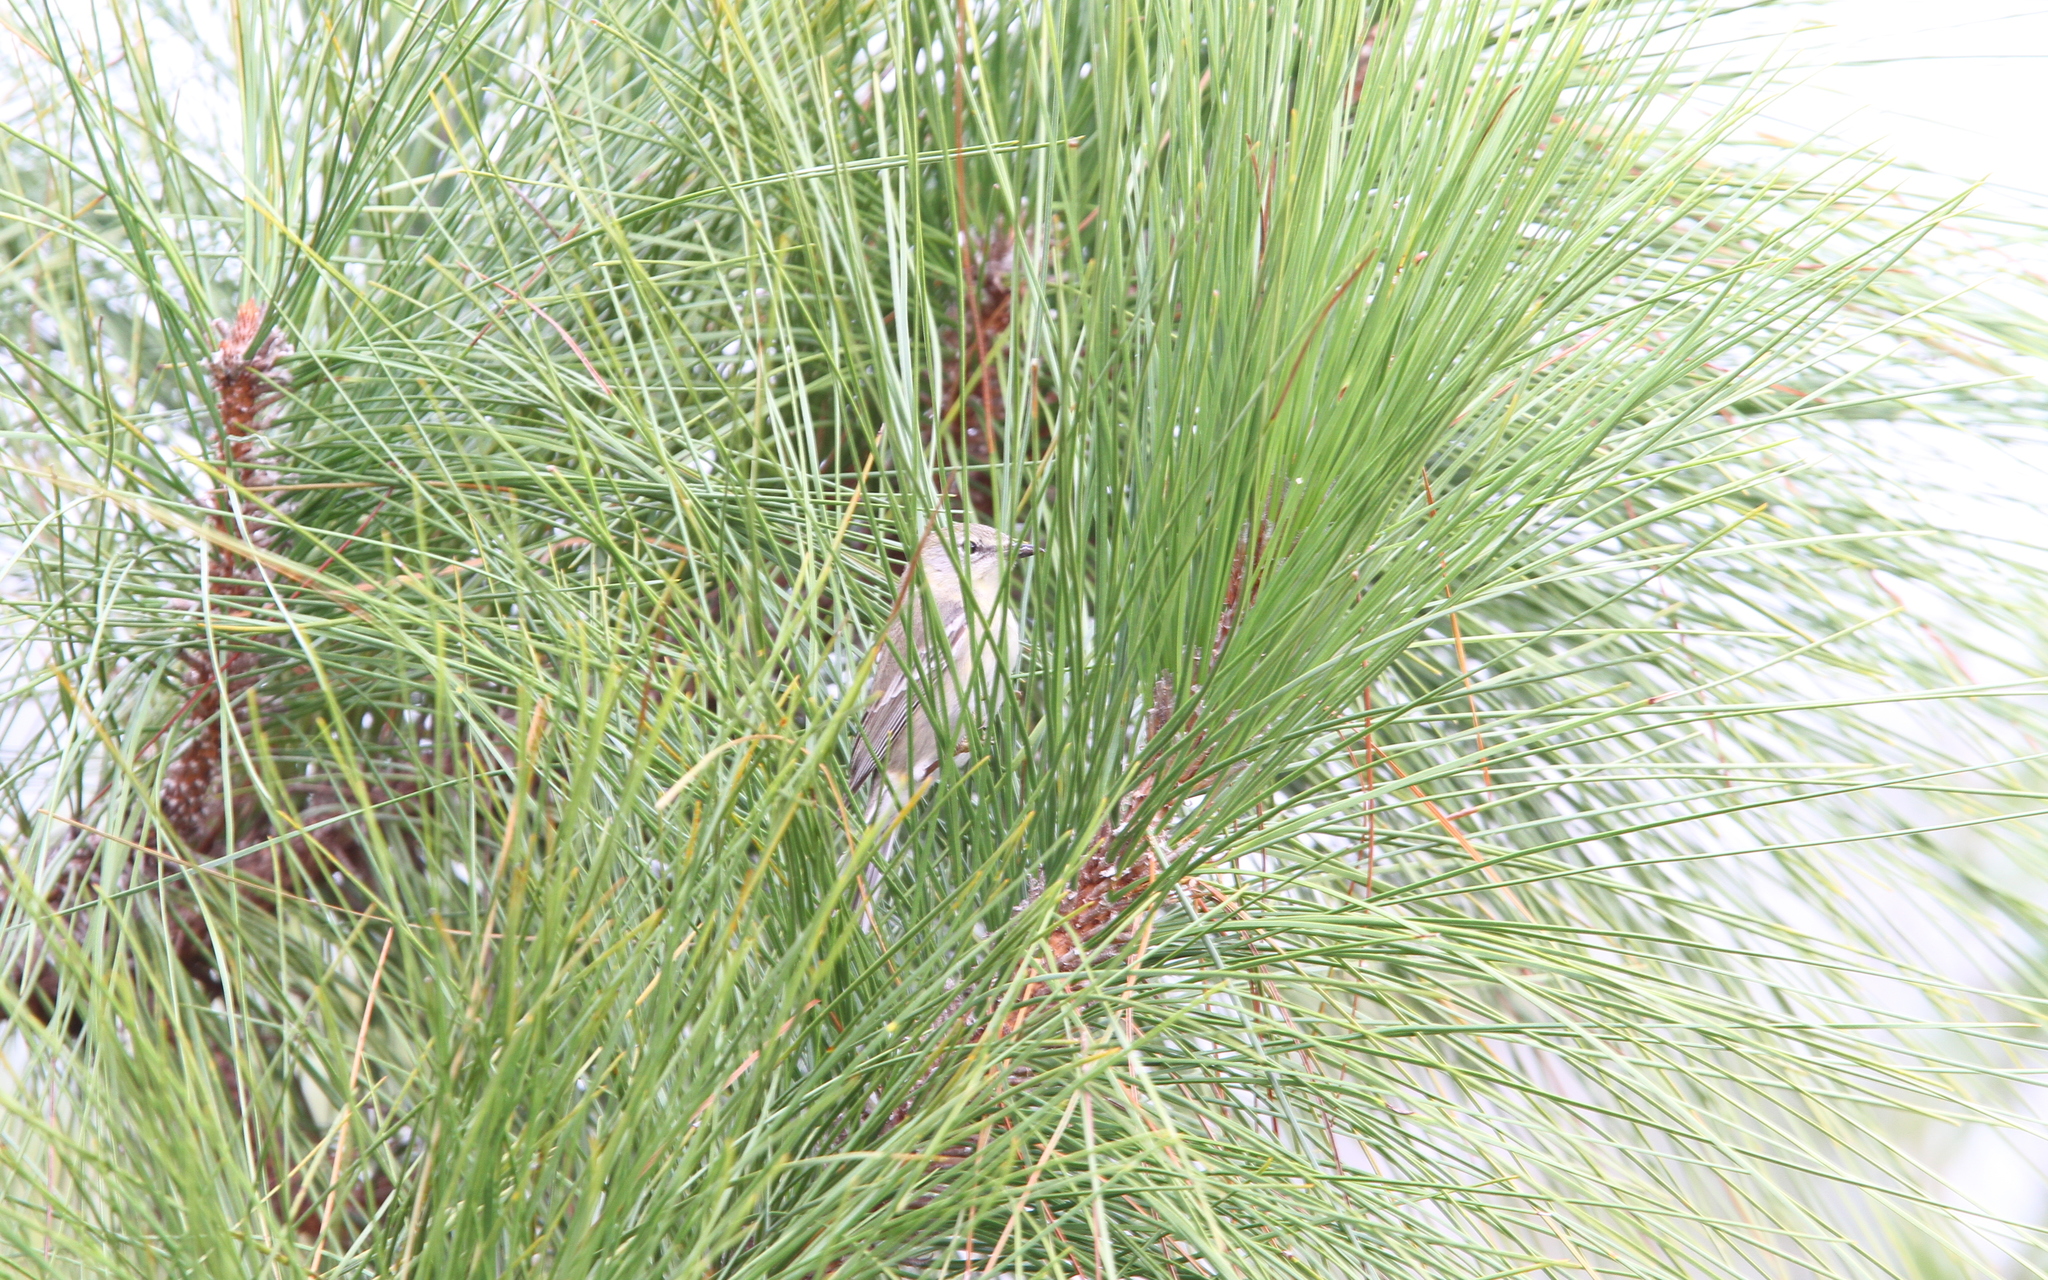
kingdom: Animalia
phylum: Chordata
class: Aves
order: Passeriformes
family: Parulidae
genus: Setophaga
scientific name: Setophaga pinus
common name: Pine warbler
